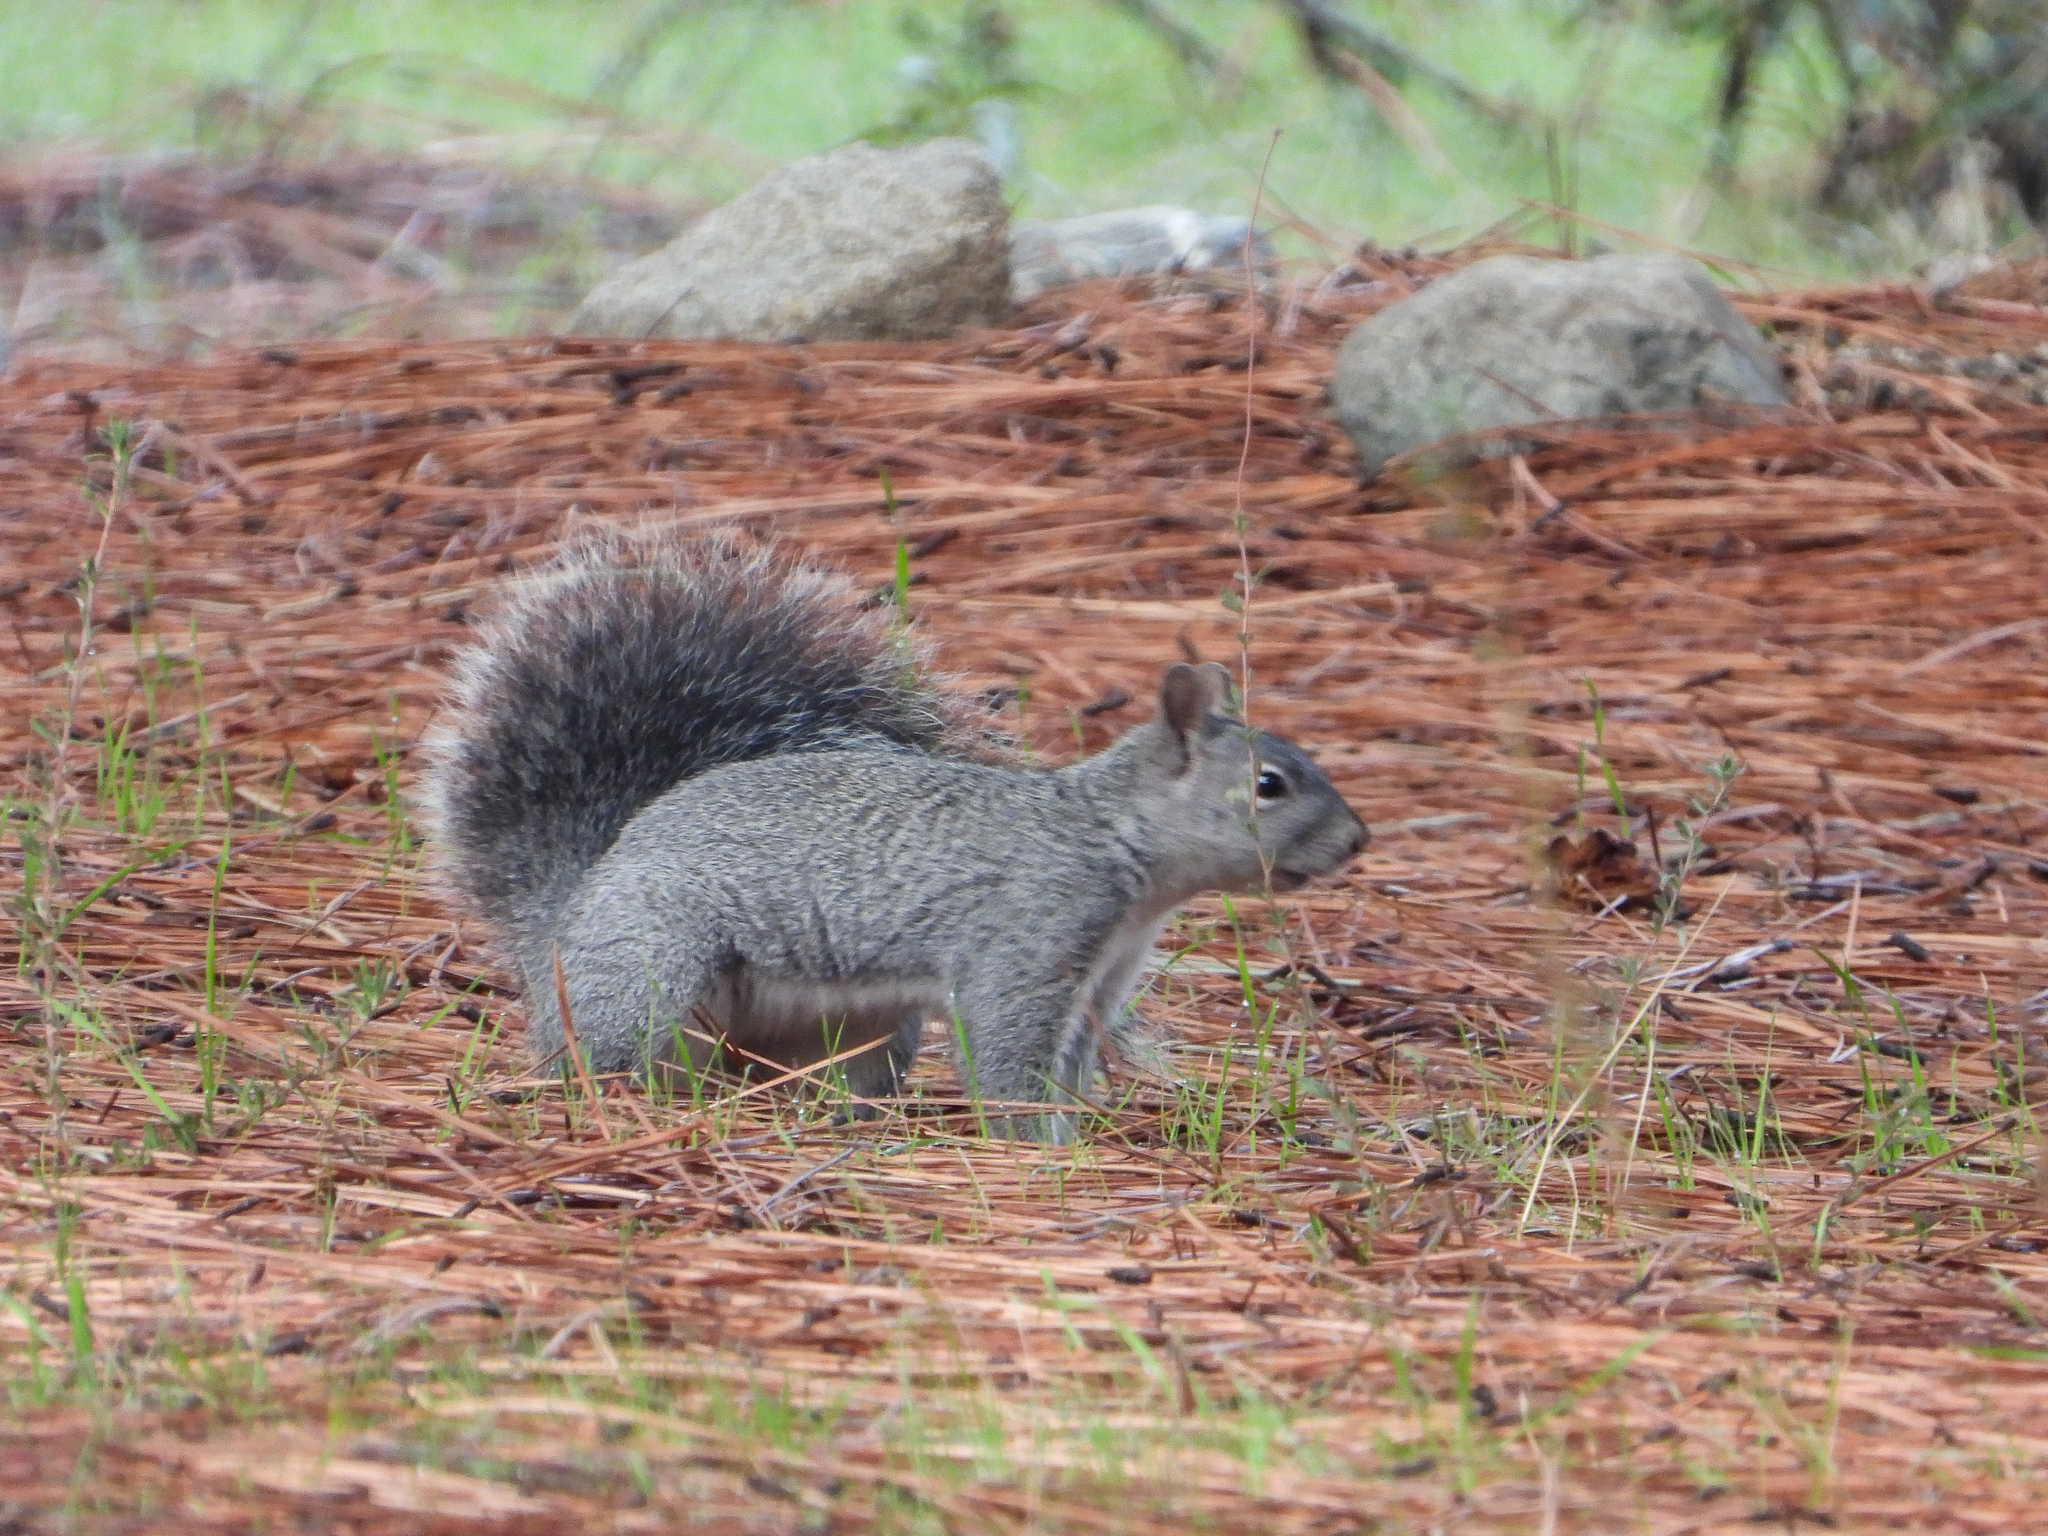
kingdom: Animalia
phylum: Chordata
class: Mammalia
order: Rodentia
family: Sciuridae
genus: Sciurus
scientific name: Sciurus griseus
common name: Western gray squirrel
